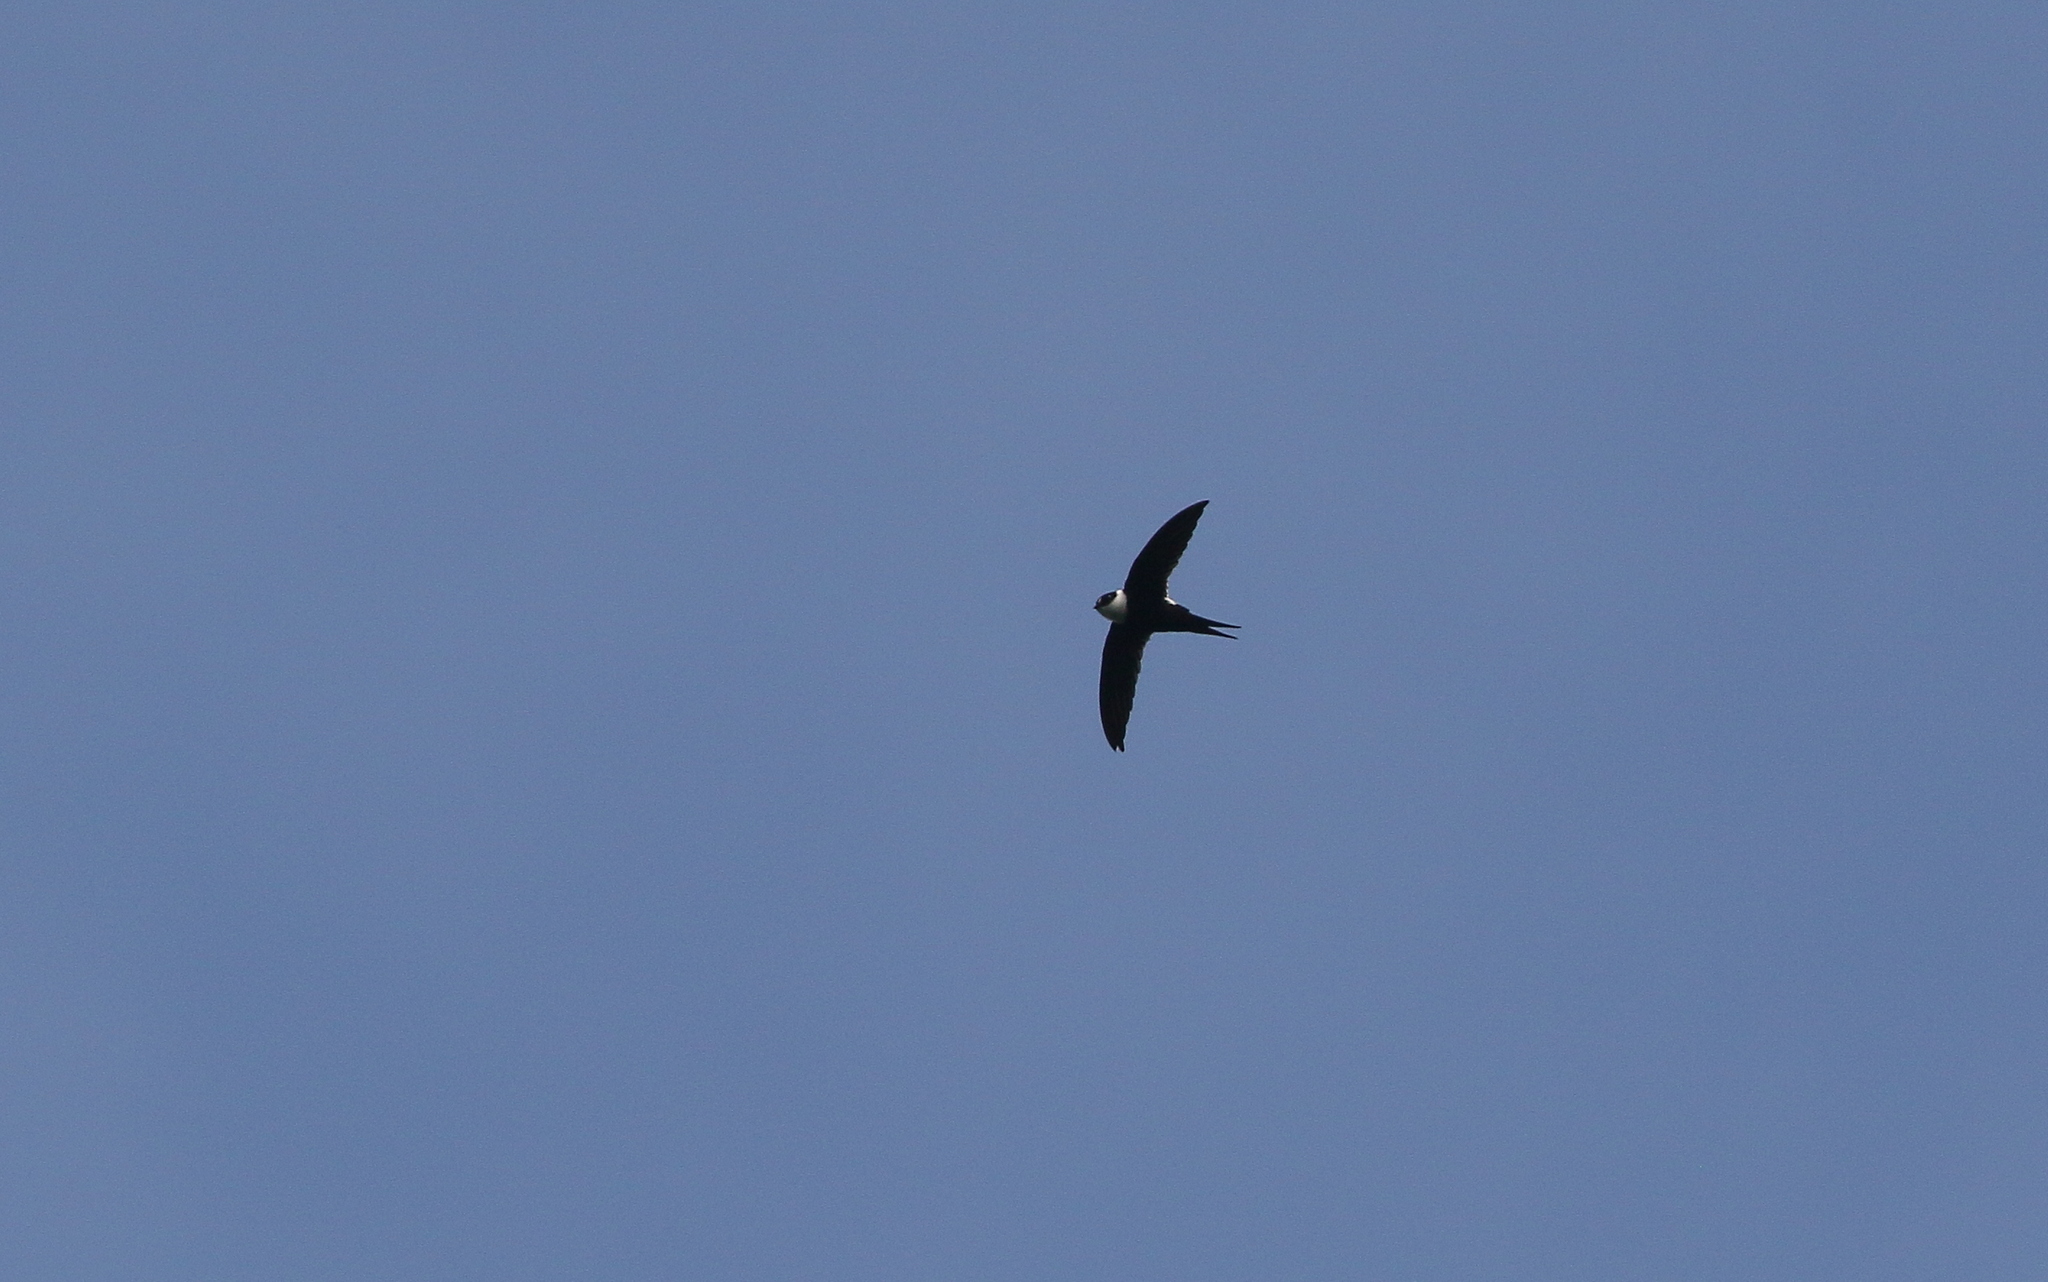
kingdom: Animalia
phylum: Chordata
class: Aves
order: Apodiformes
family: Apodidae
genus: Panyptila
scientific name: Panyptila cayennensis
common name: Lesser swallow-tailed swift
